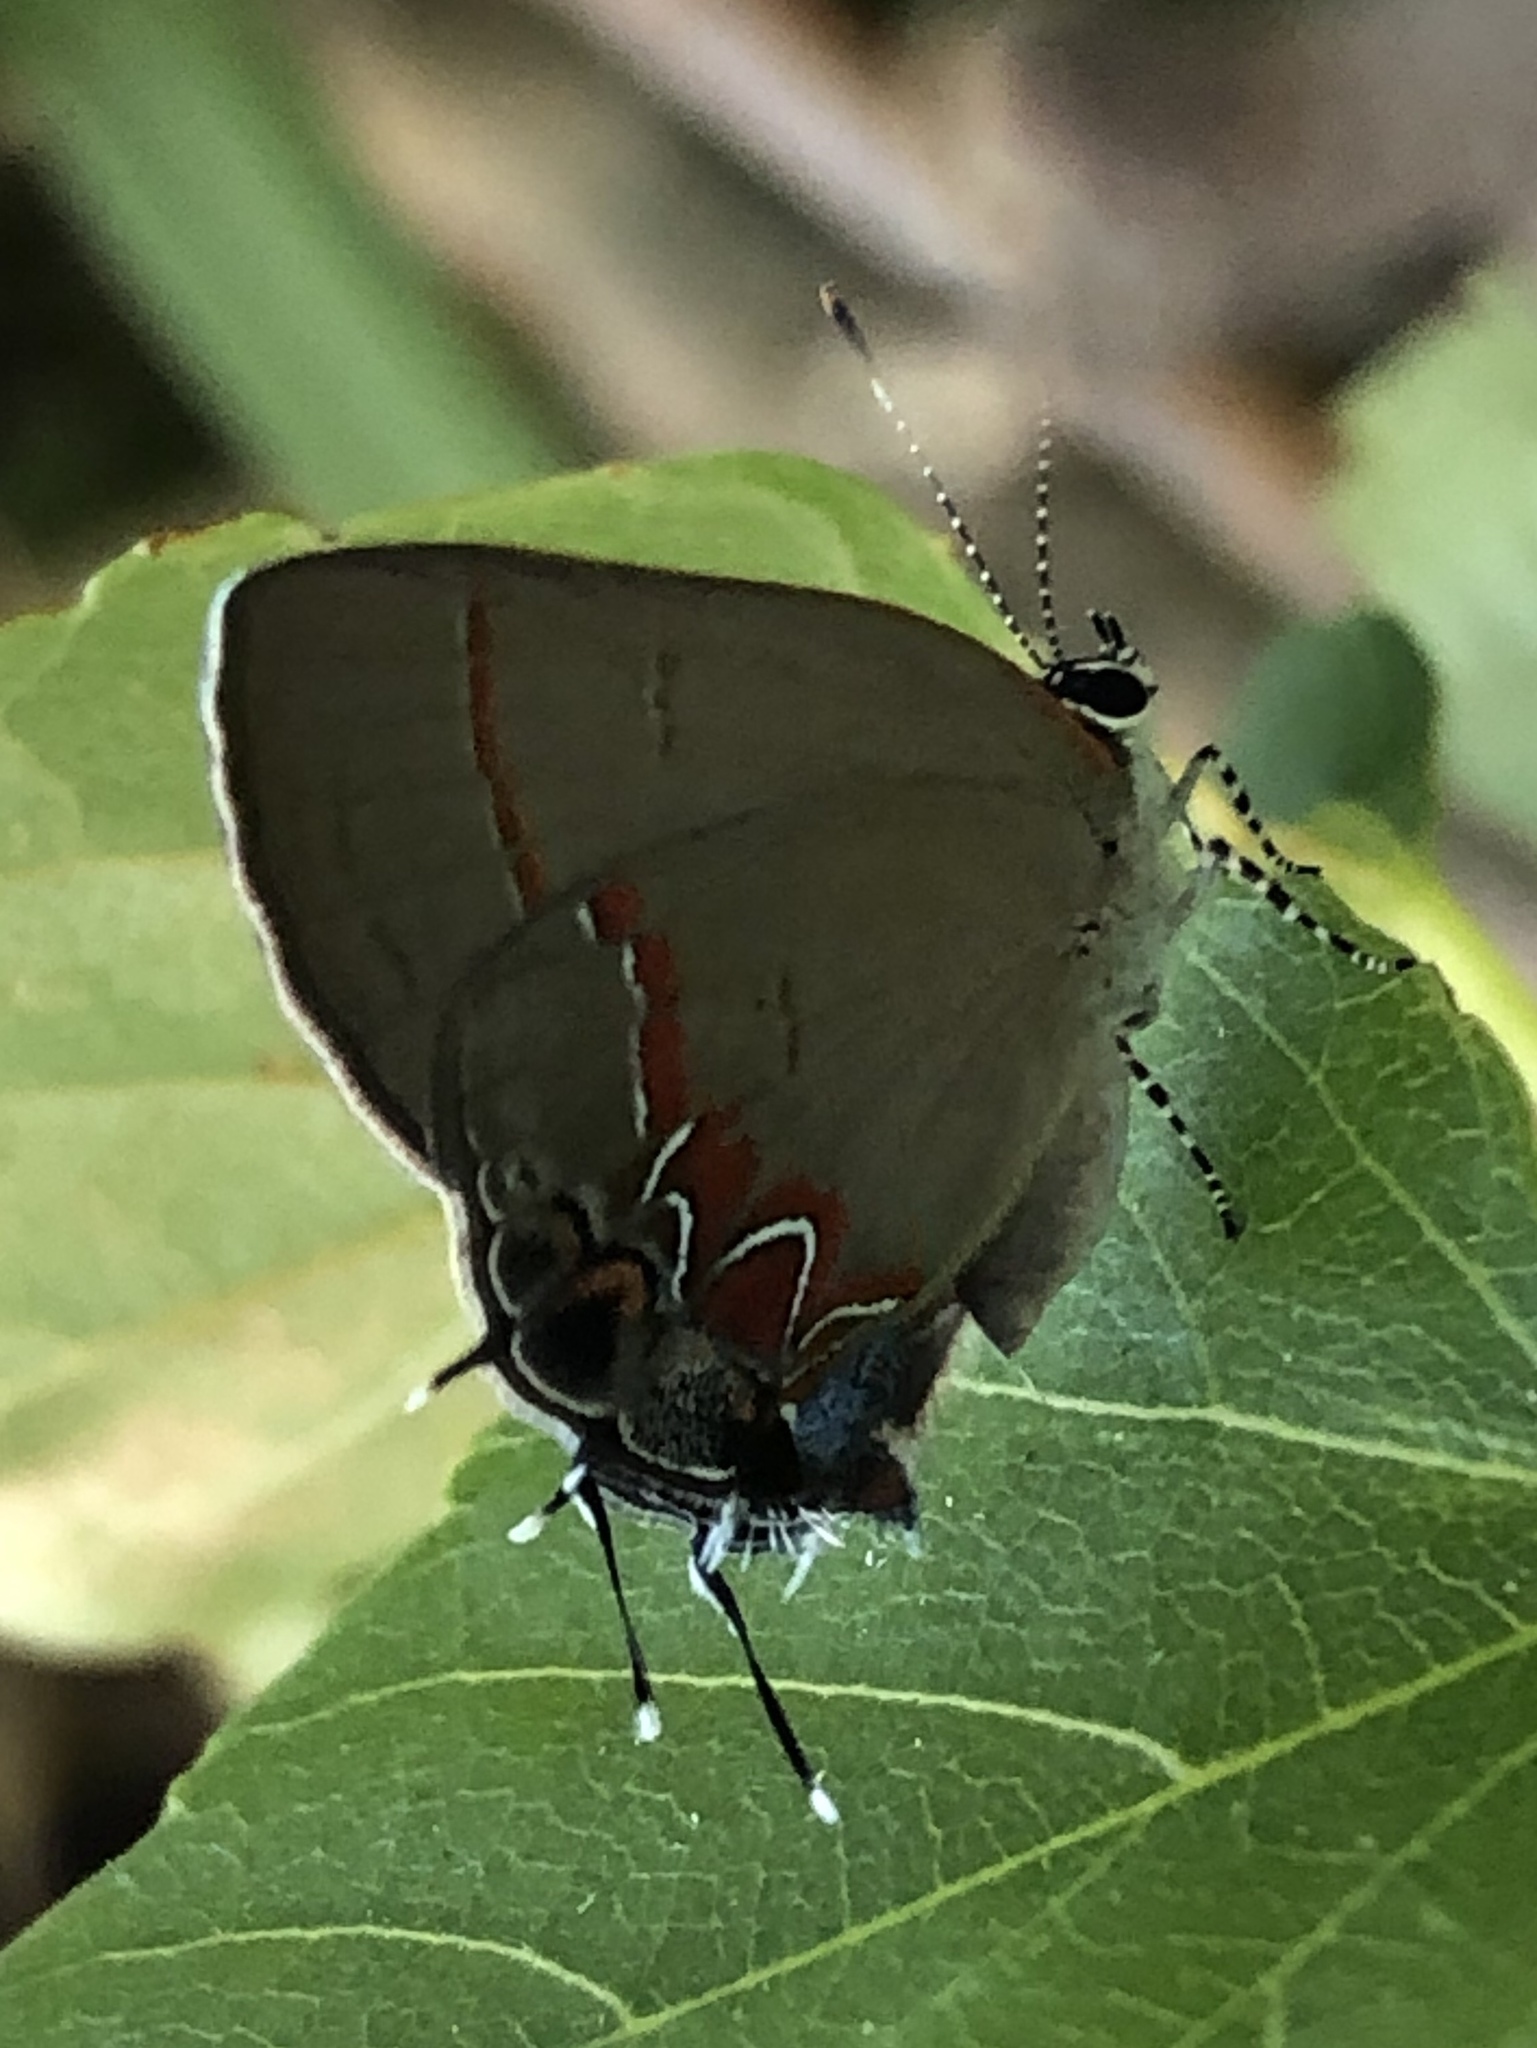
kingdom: Animalia
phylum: Arthropoda
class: Insecta
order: Lepidoptera
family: Lycaenidae
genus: Calycopis
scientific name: Calycopis isobeon
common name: Dusky-blue groundstreak
